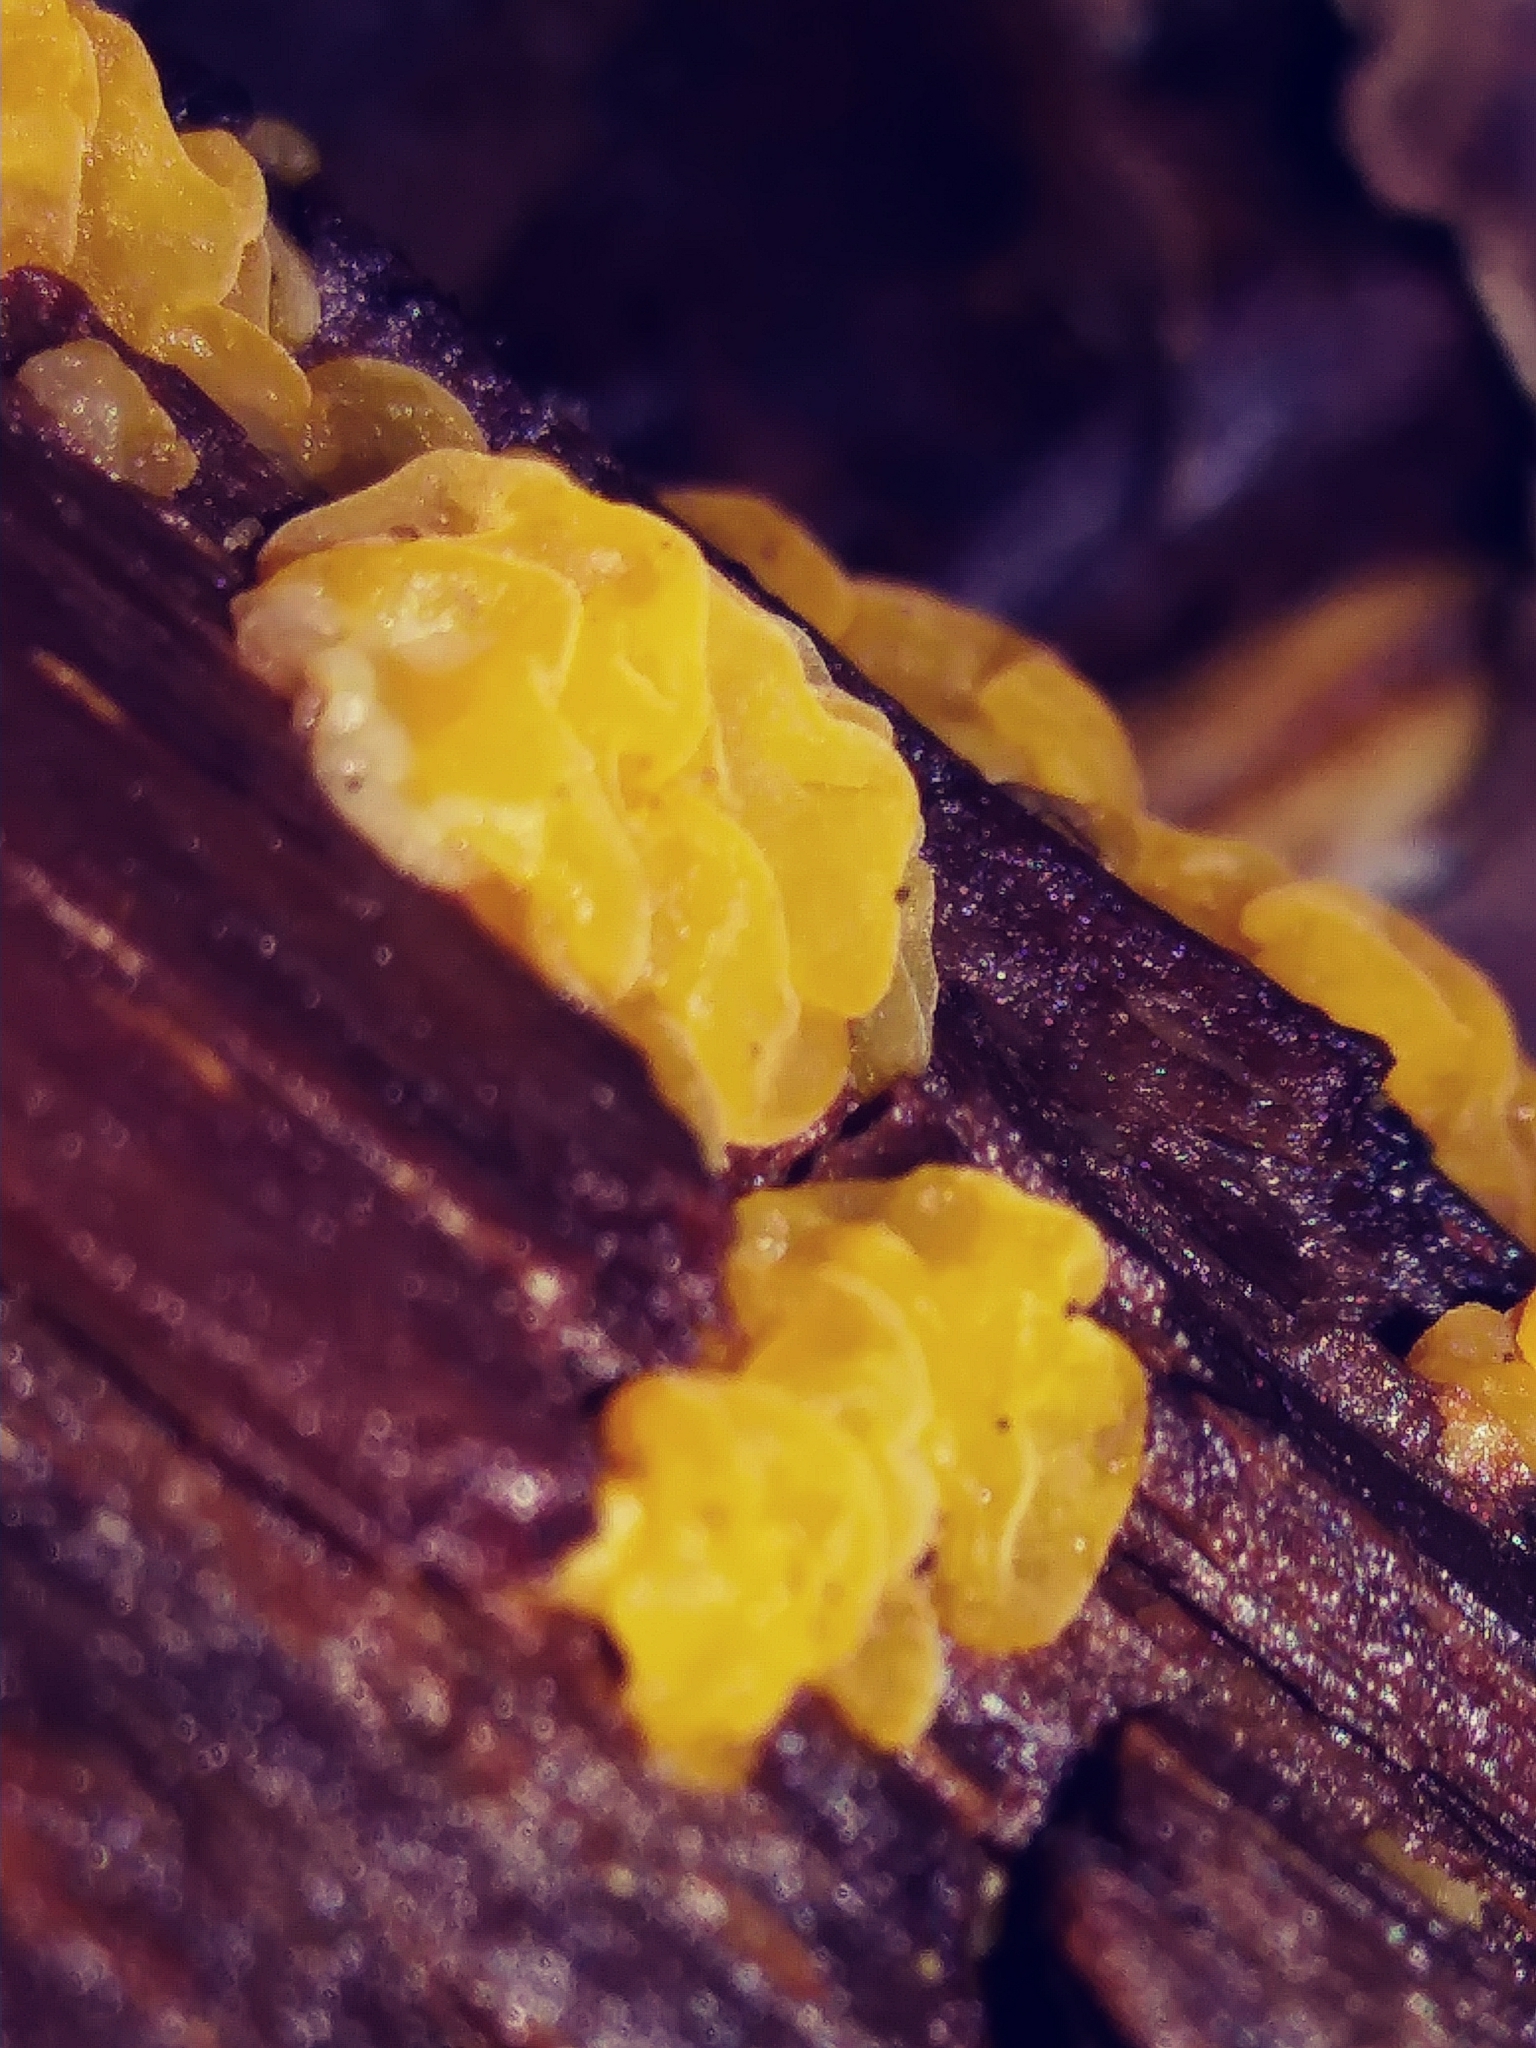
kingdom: Fungi
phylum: Basidiomycota
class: Tremellomycetes
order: Tremellales
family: Tremellaceae
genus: Tremella
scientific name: Tremella mesenterica
